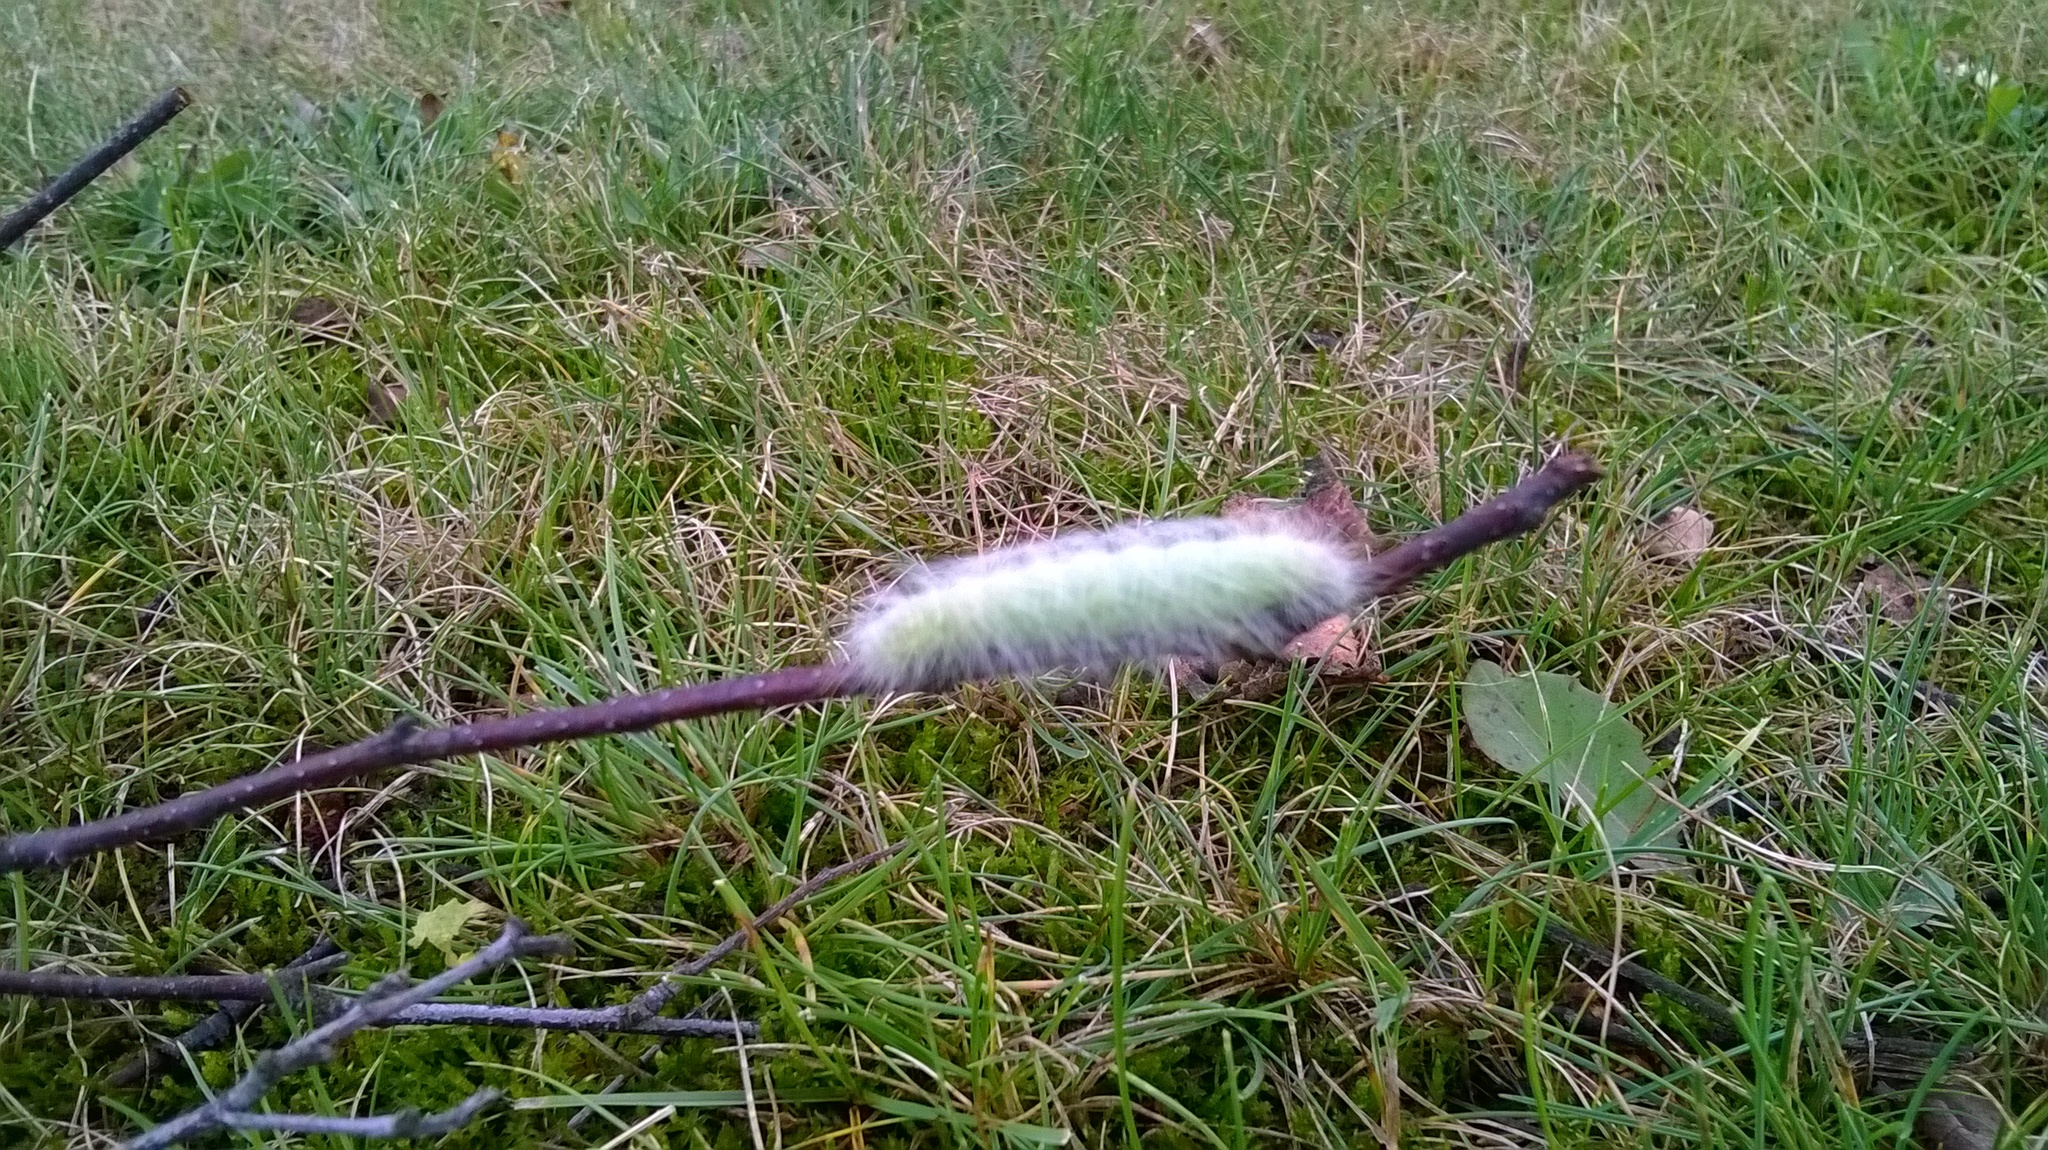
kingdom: Animalia
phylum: Arthropoda
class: Insecta
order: Lepidoptera
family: Noctuidae
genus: Acronicta
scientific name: Acronicta leporina
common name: Miller
